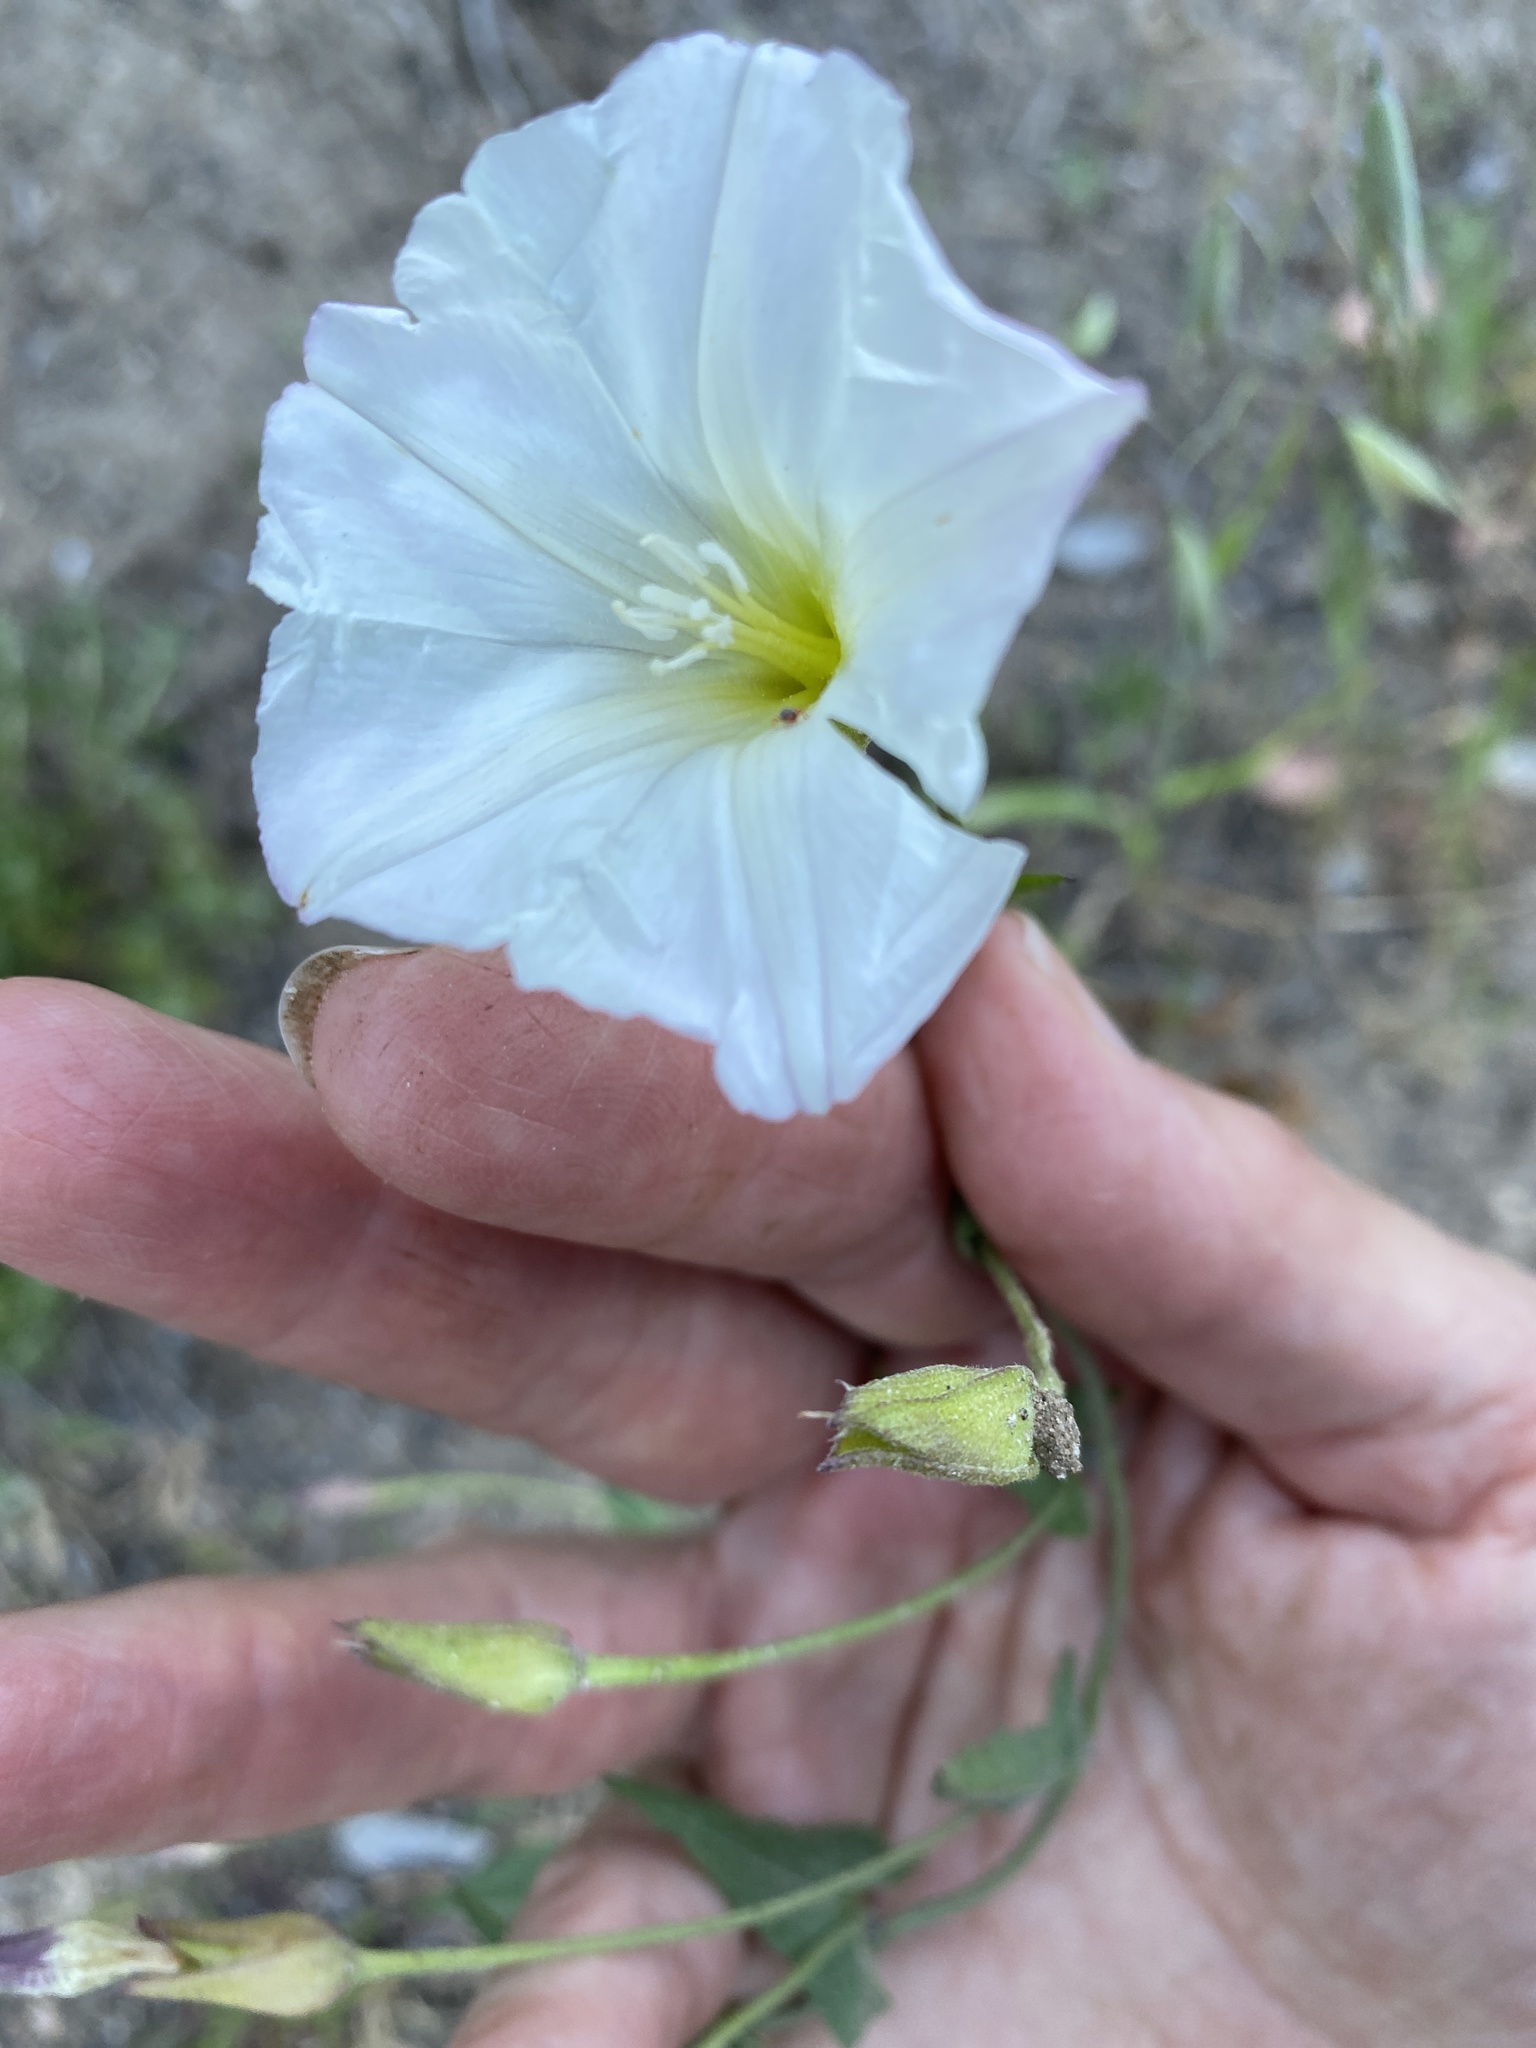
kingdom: Plantae
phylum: Tracheophyta
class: Magnoliopsida
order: Solanales
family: Convolvulaceae
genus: Calystegia
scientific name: Calystegia macrostegia
